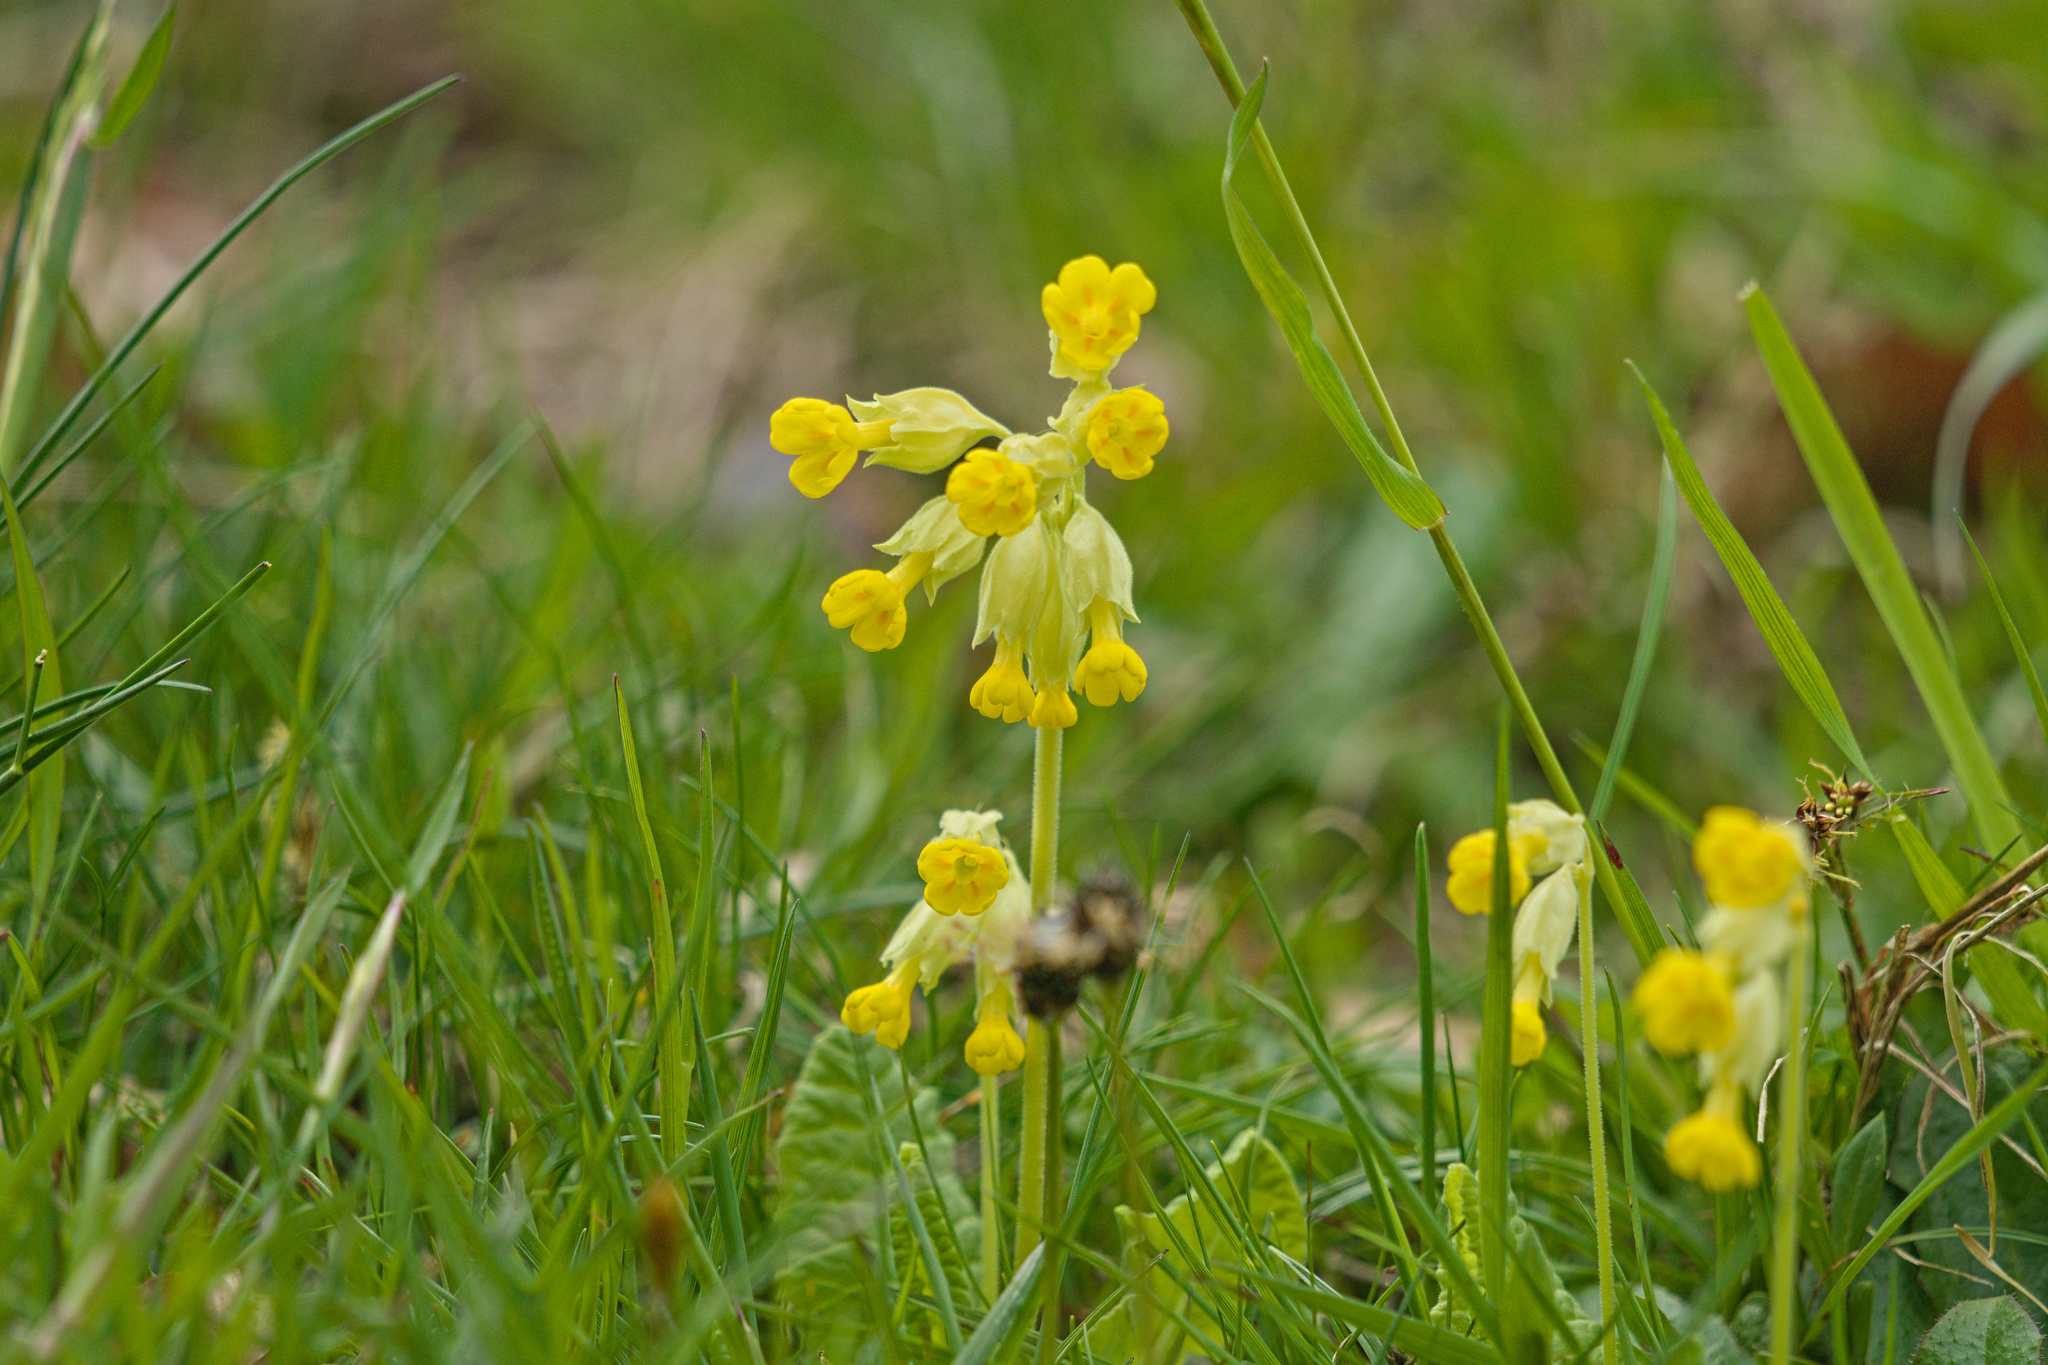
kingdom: Plantae
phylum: Tracheophyta
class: Magnoliopsida
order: Ericales
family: Primulaceae
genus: Primula
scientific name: Primula veris
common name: Cowslip
